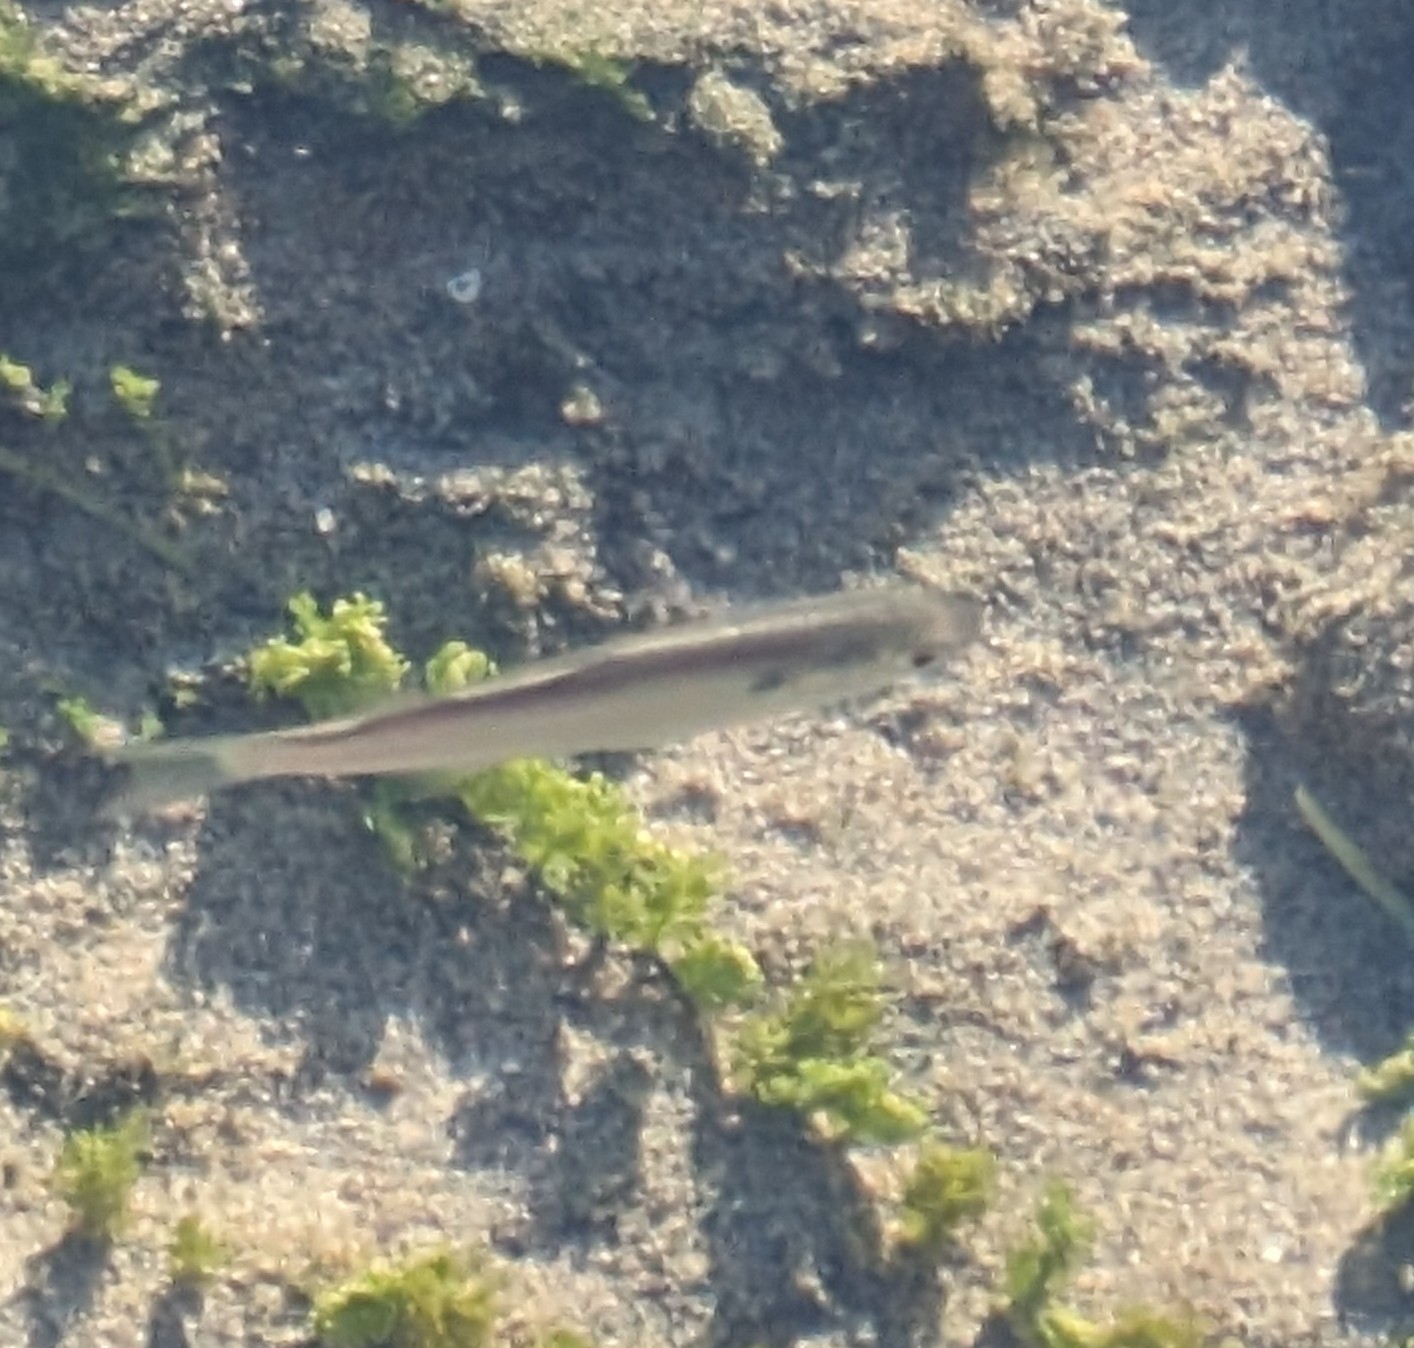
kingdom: Animalia
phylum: Chordata
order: Mugiliformes
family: Mugilidae
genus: Mugil
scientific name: Mugil curema
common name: White mullet
